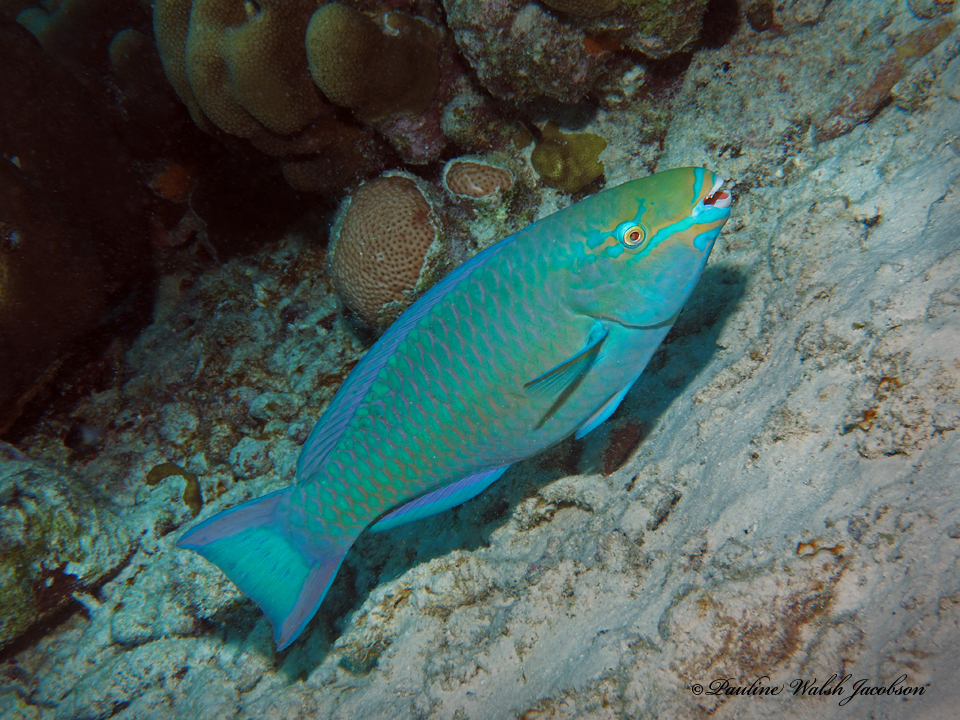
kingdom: Animalia
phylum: Chordata
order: Perciformes
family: Scaridae
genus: Scarus
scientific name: Scarus vetula
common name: Queen parrotfish
